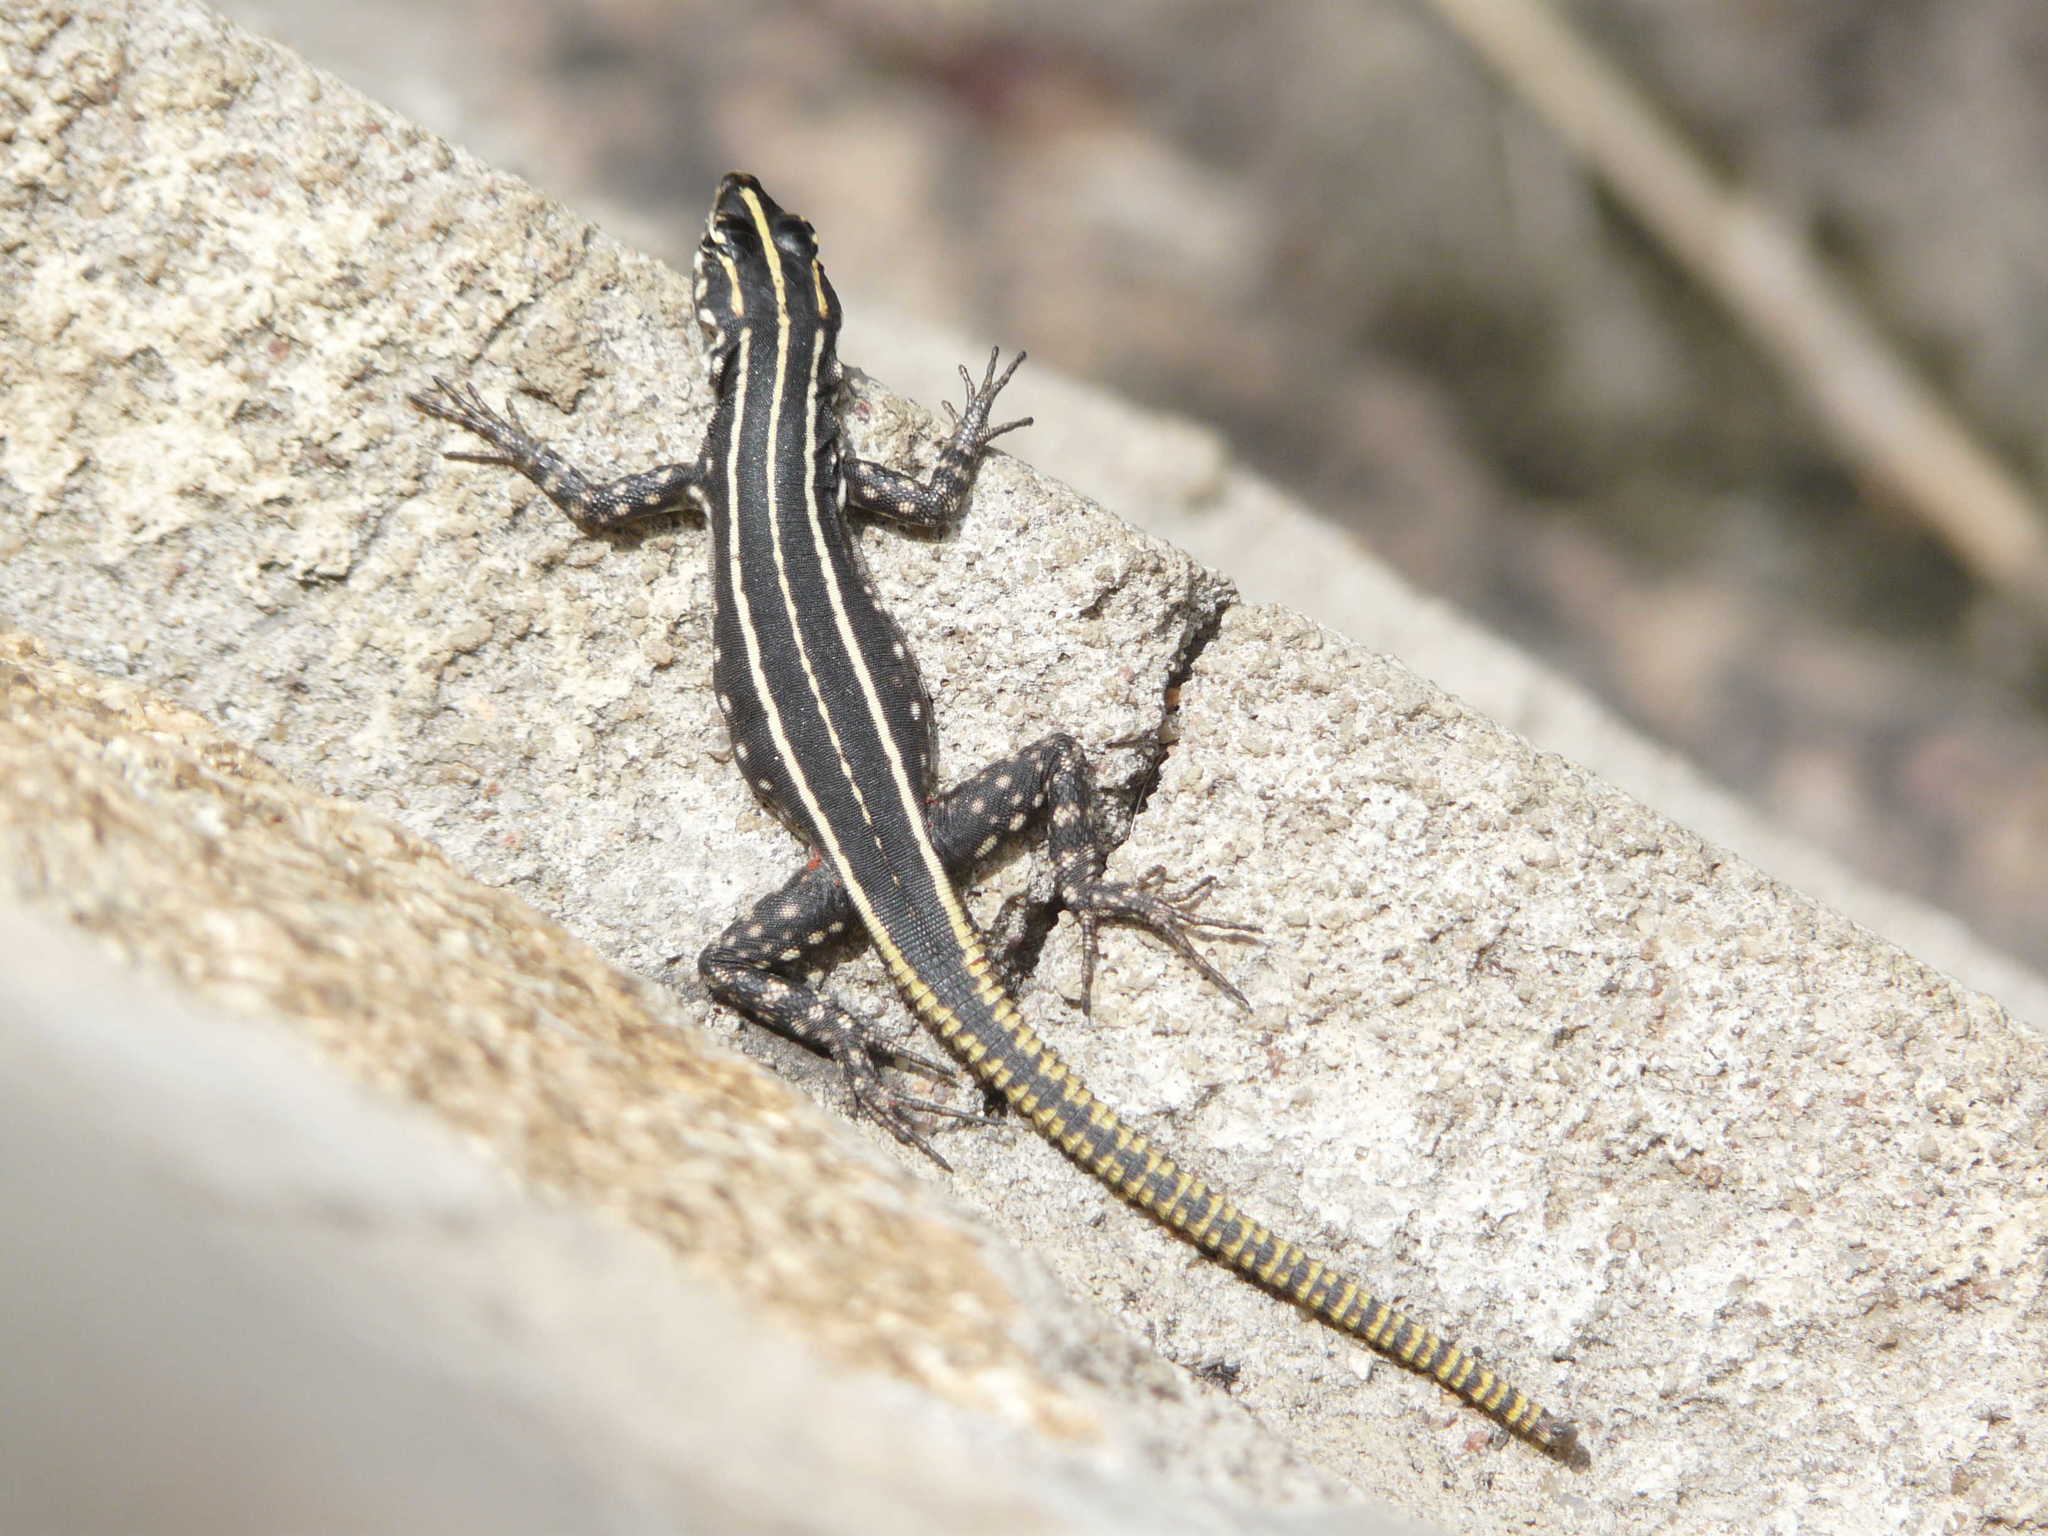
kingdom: Animalia
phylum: Chordata
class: Squamata
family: Cordylidae
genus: Platysaurus
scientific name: Platysaurus intermedius
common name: Common flat lizard
